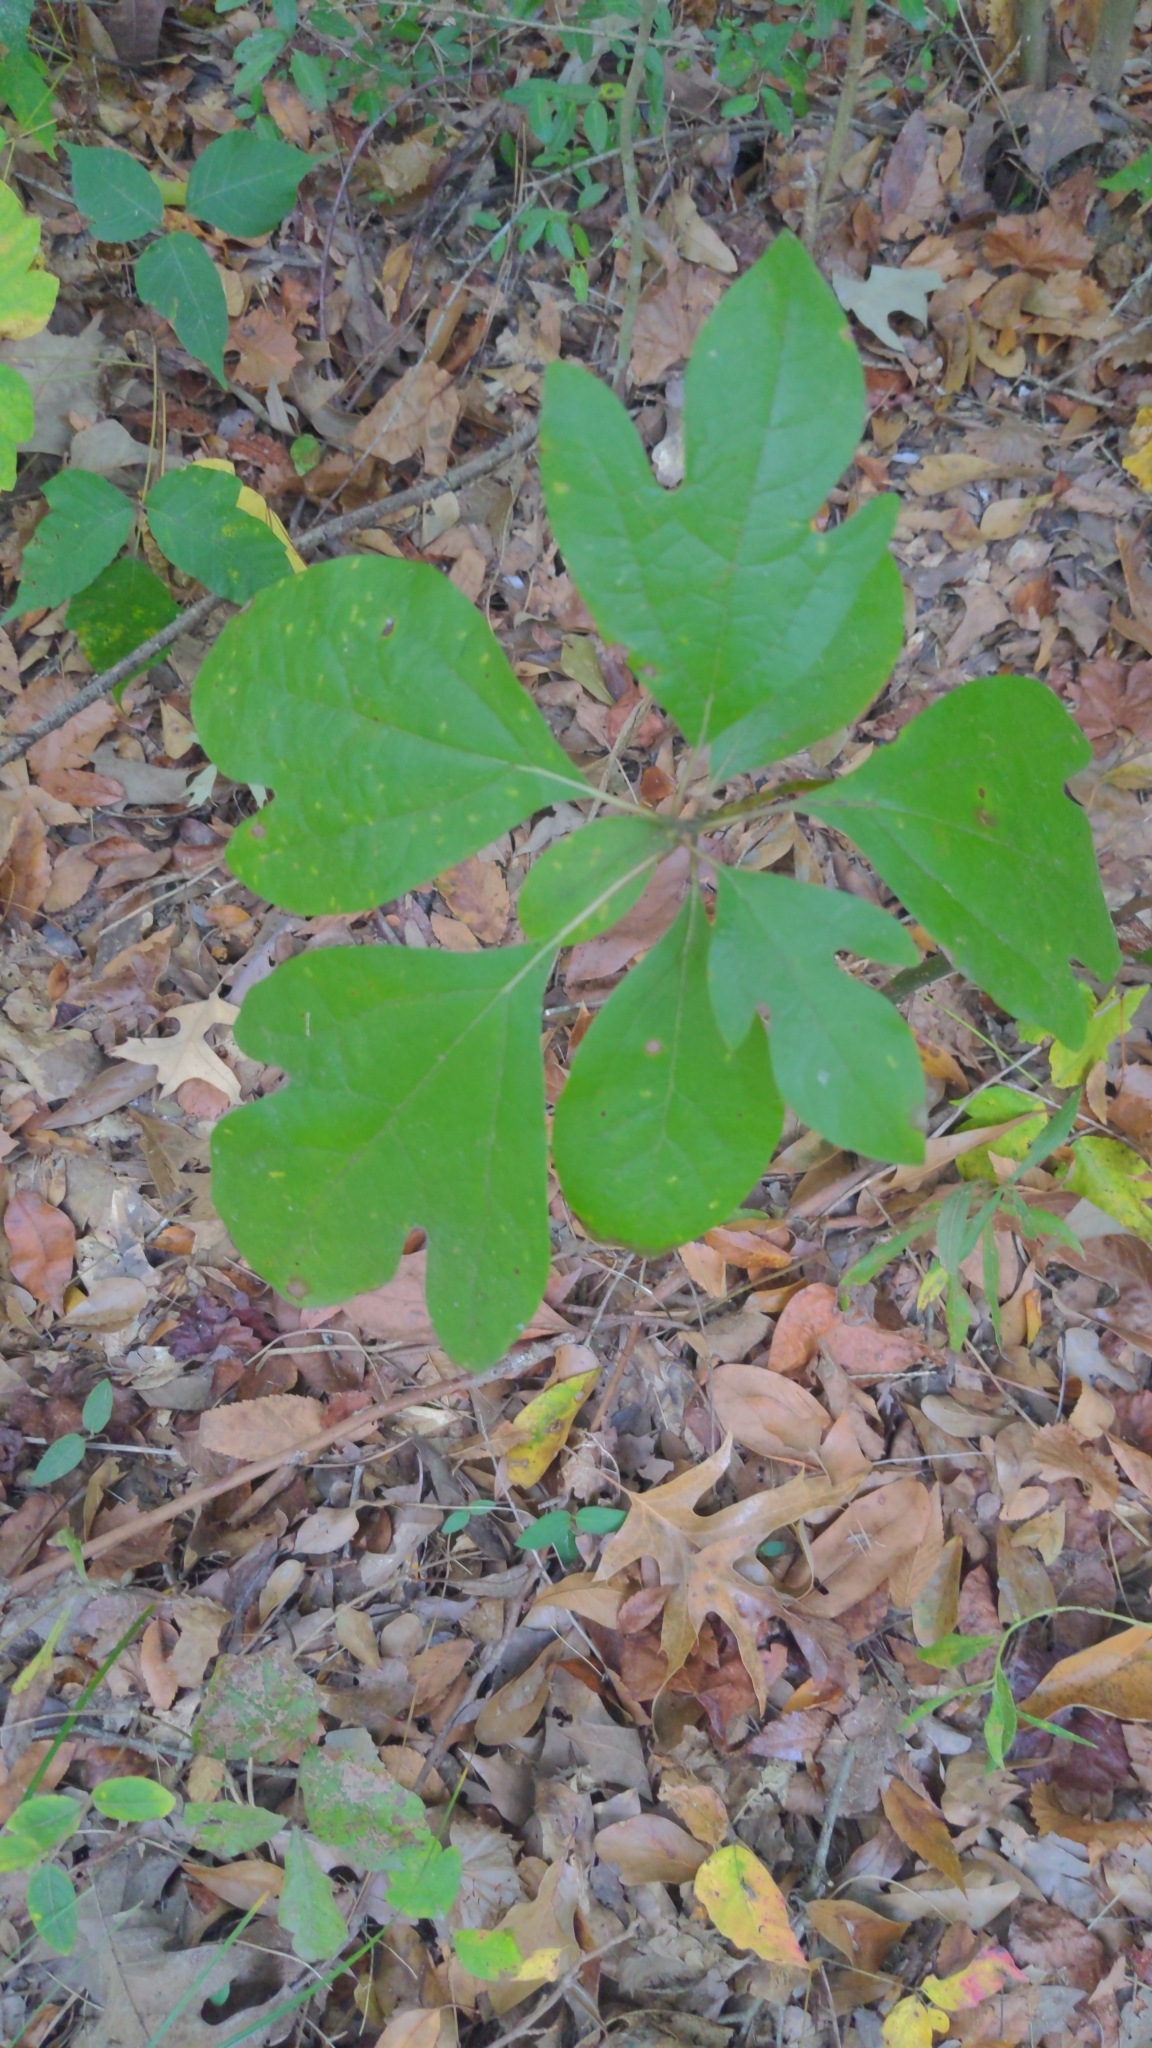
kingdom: Plantae
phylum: Tracheophyta
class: Magnoliopsida
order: Laurales
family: Lauraceae
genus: Sassafras
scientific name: Sassafras albidum
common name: Sassafras
